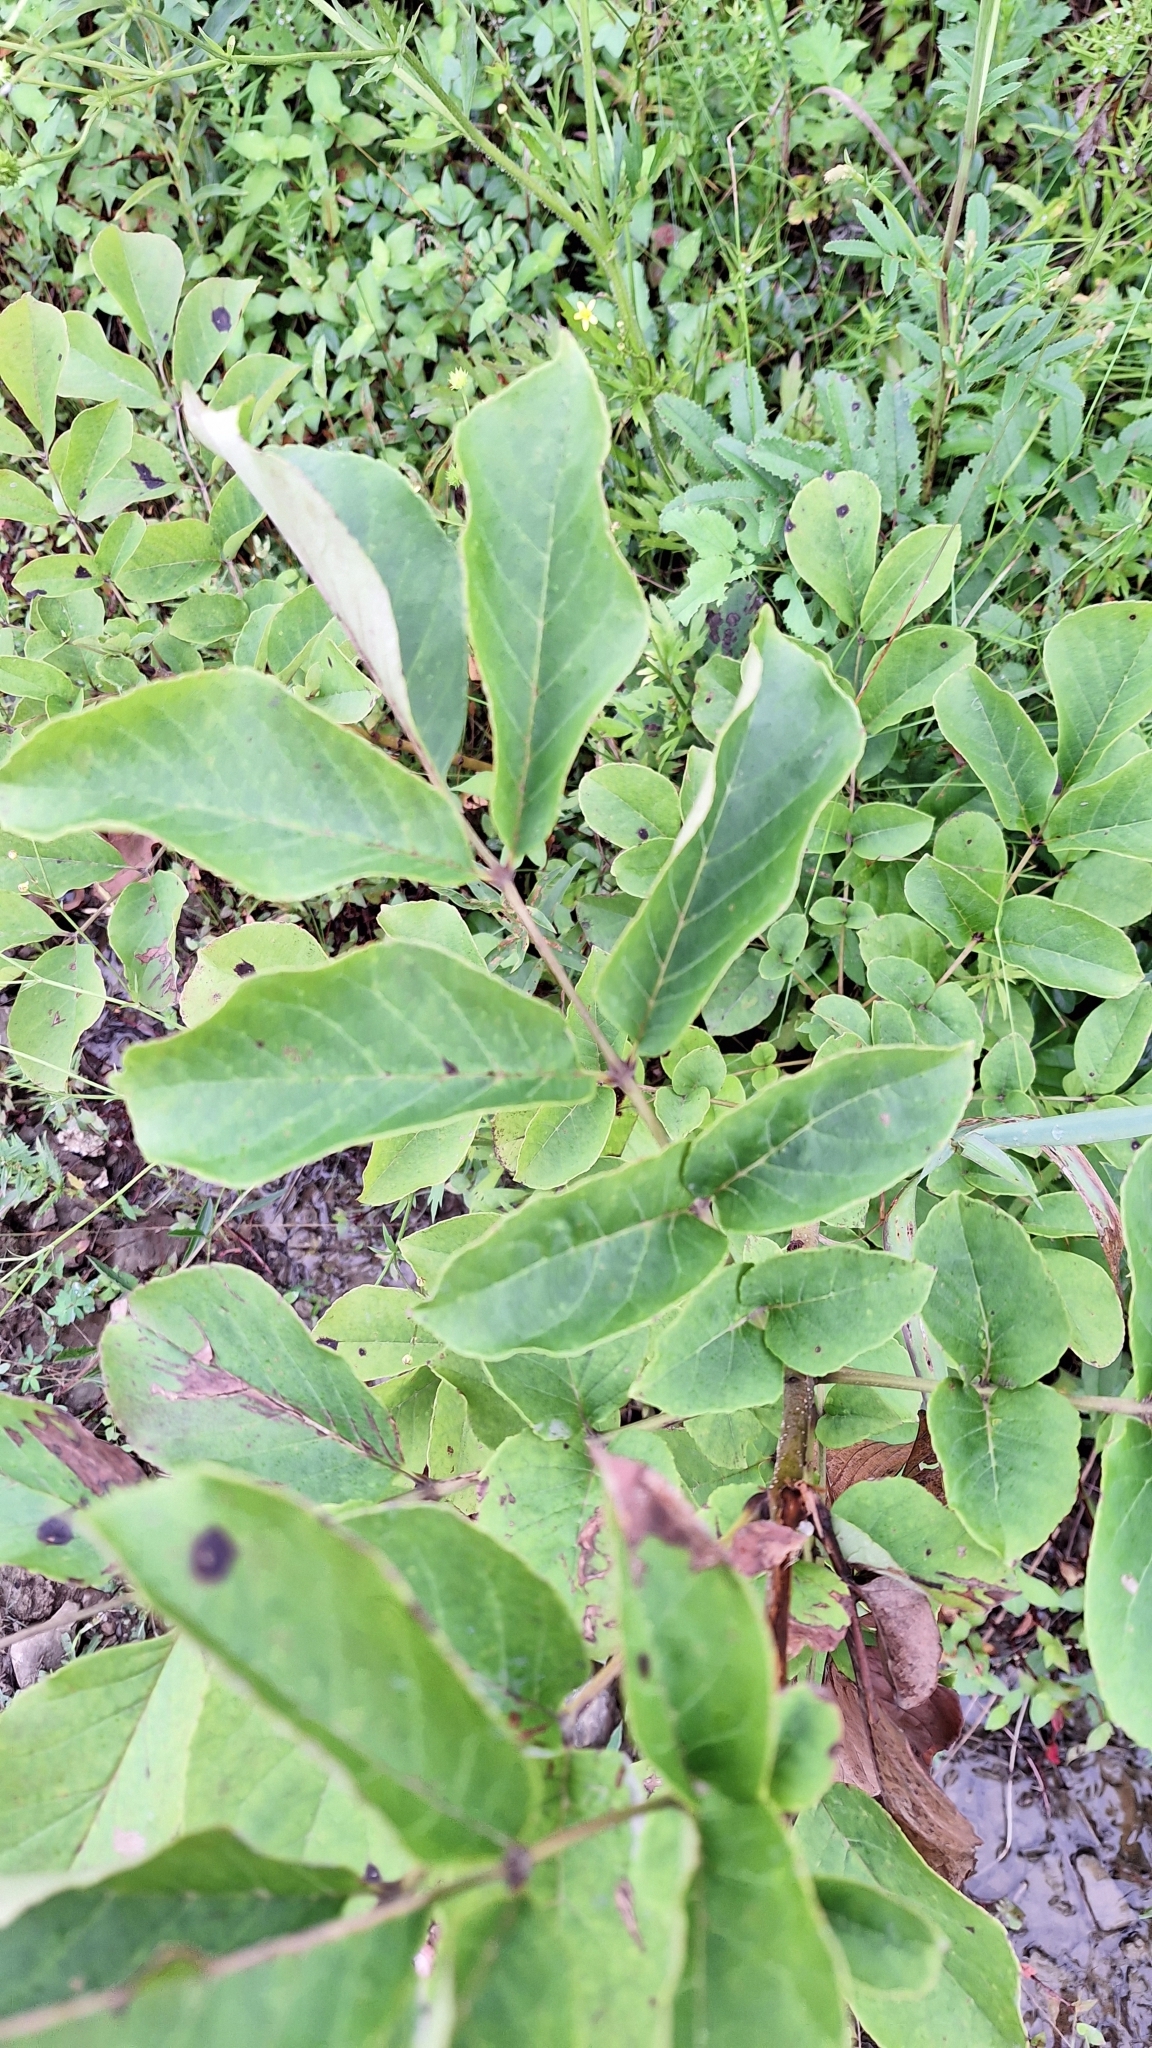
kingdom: Plantae
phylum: Tracheophyta
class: Magnoliopsida
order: Lamiales
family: Oleaceae
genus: Fraxinus
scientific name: Fraxinus chinensis
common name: Chinese ash
